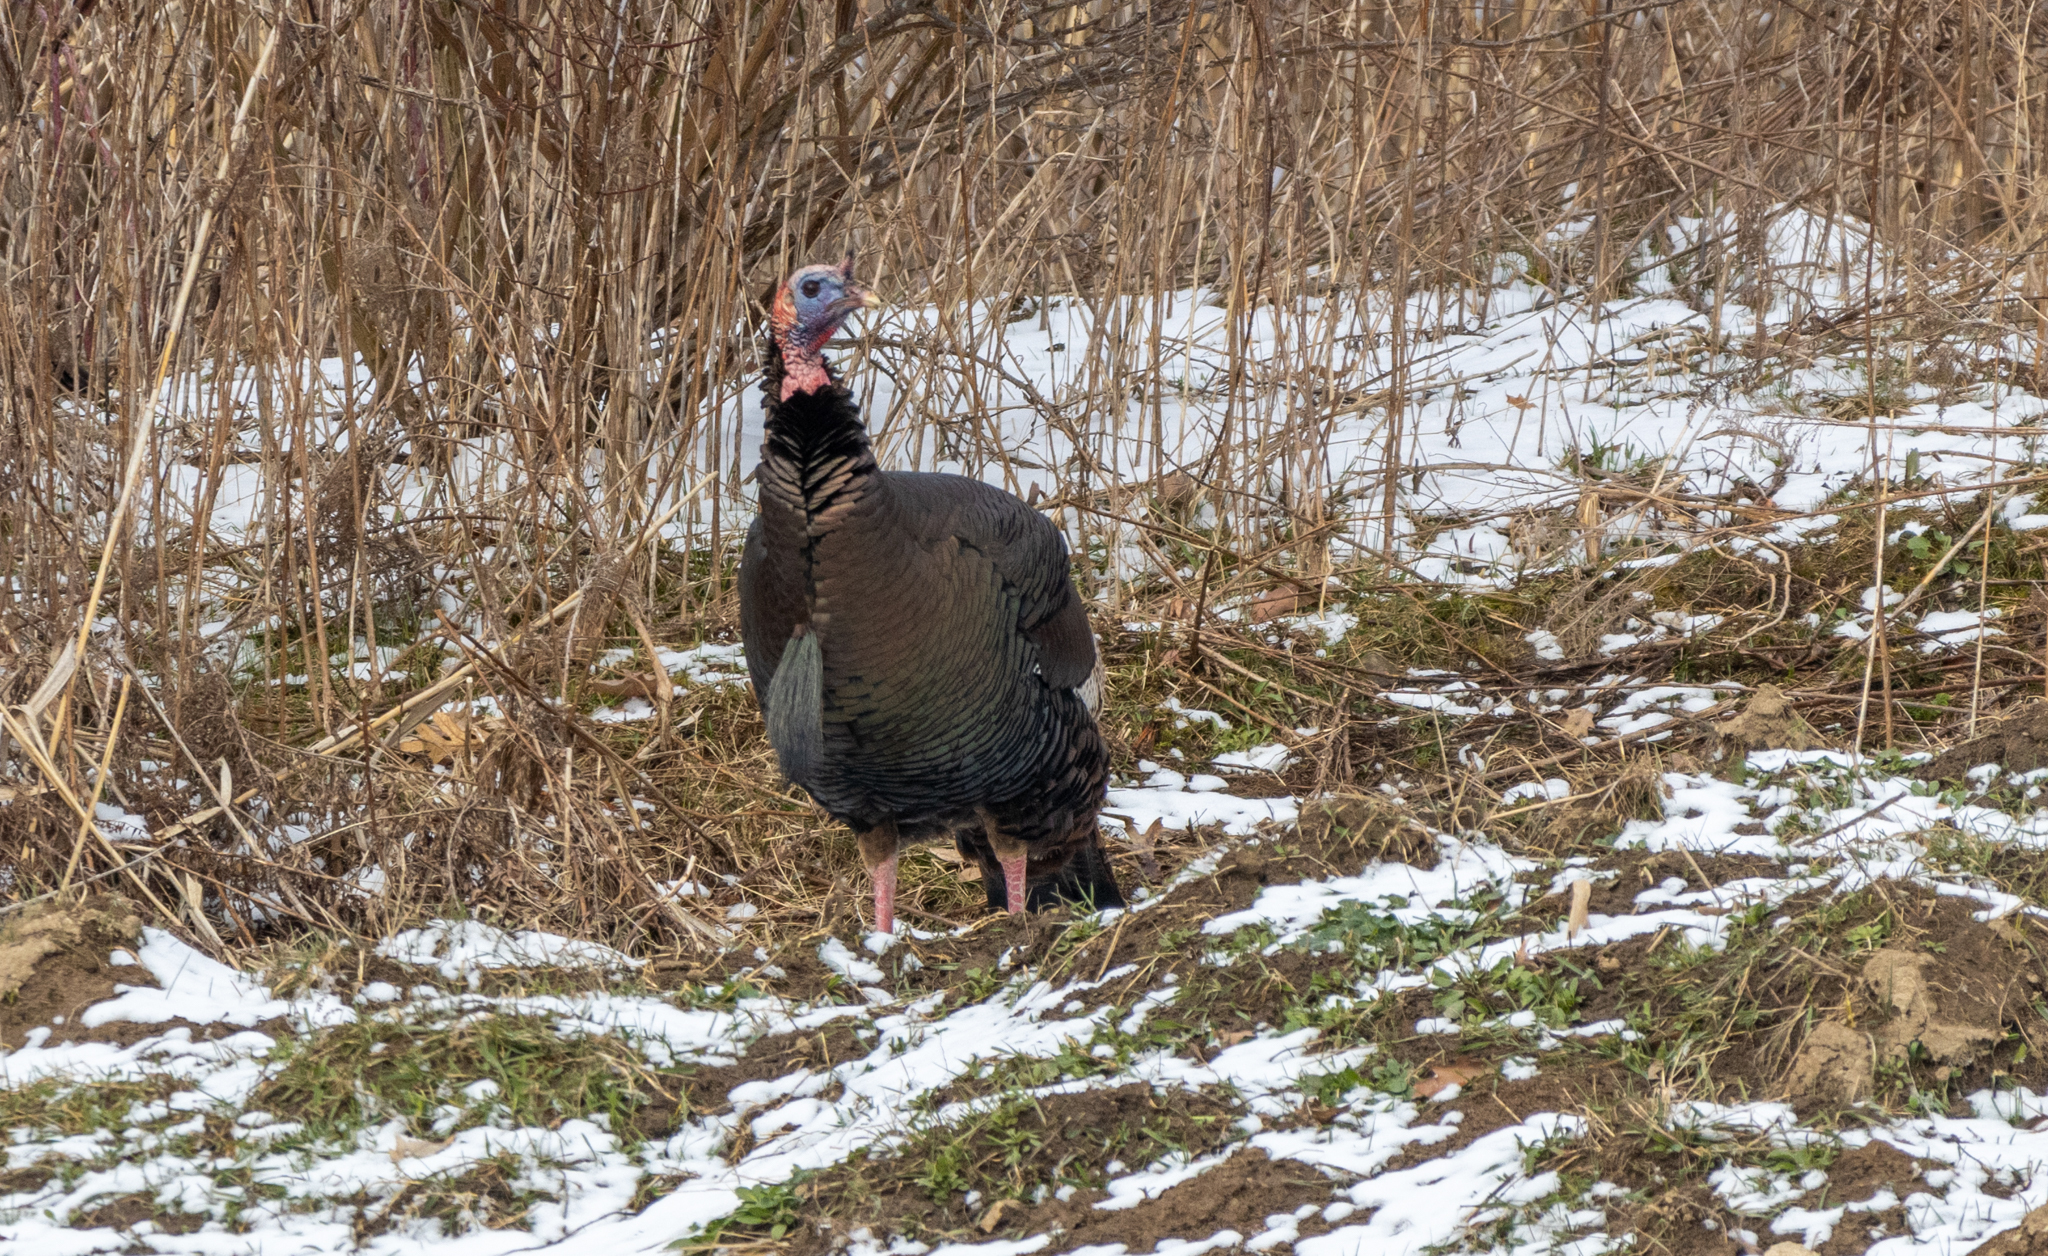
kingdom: Animalia
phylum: Chordata
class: Aves
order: Galliformes
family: Phasianidae
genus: Meleagris
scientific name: Meleagris gallopavo
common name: Wild turkey
